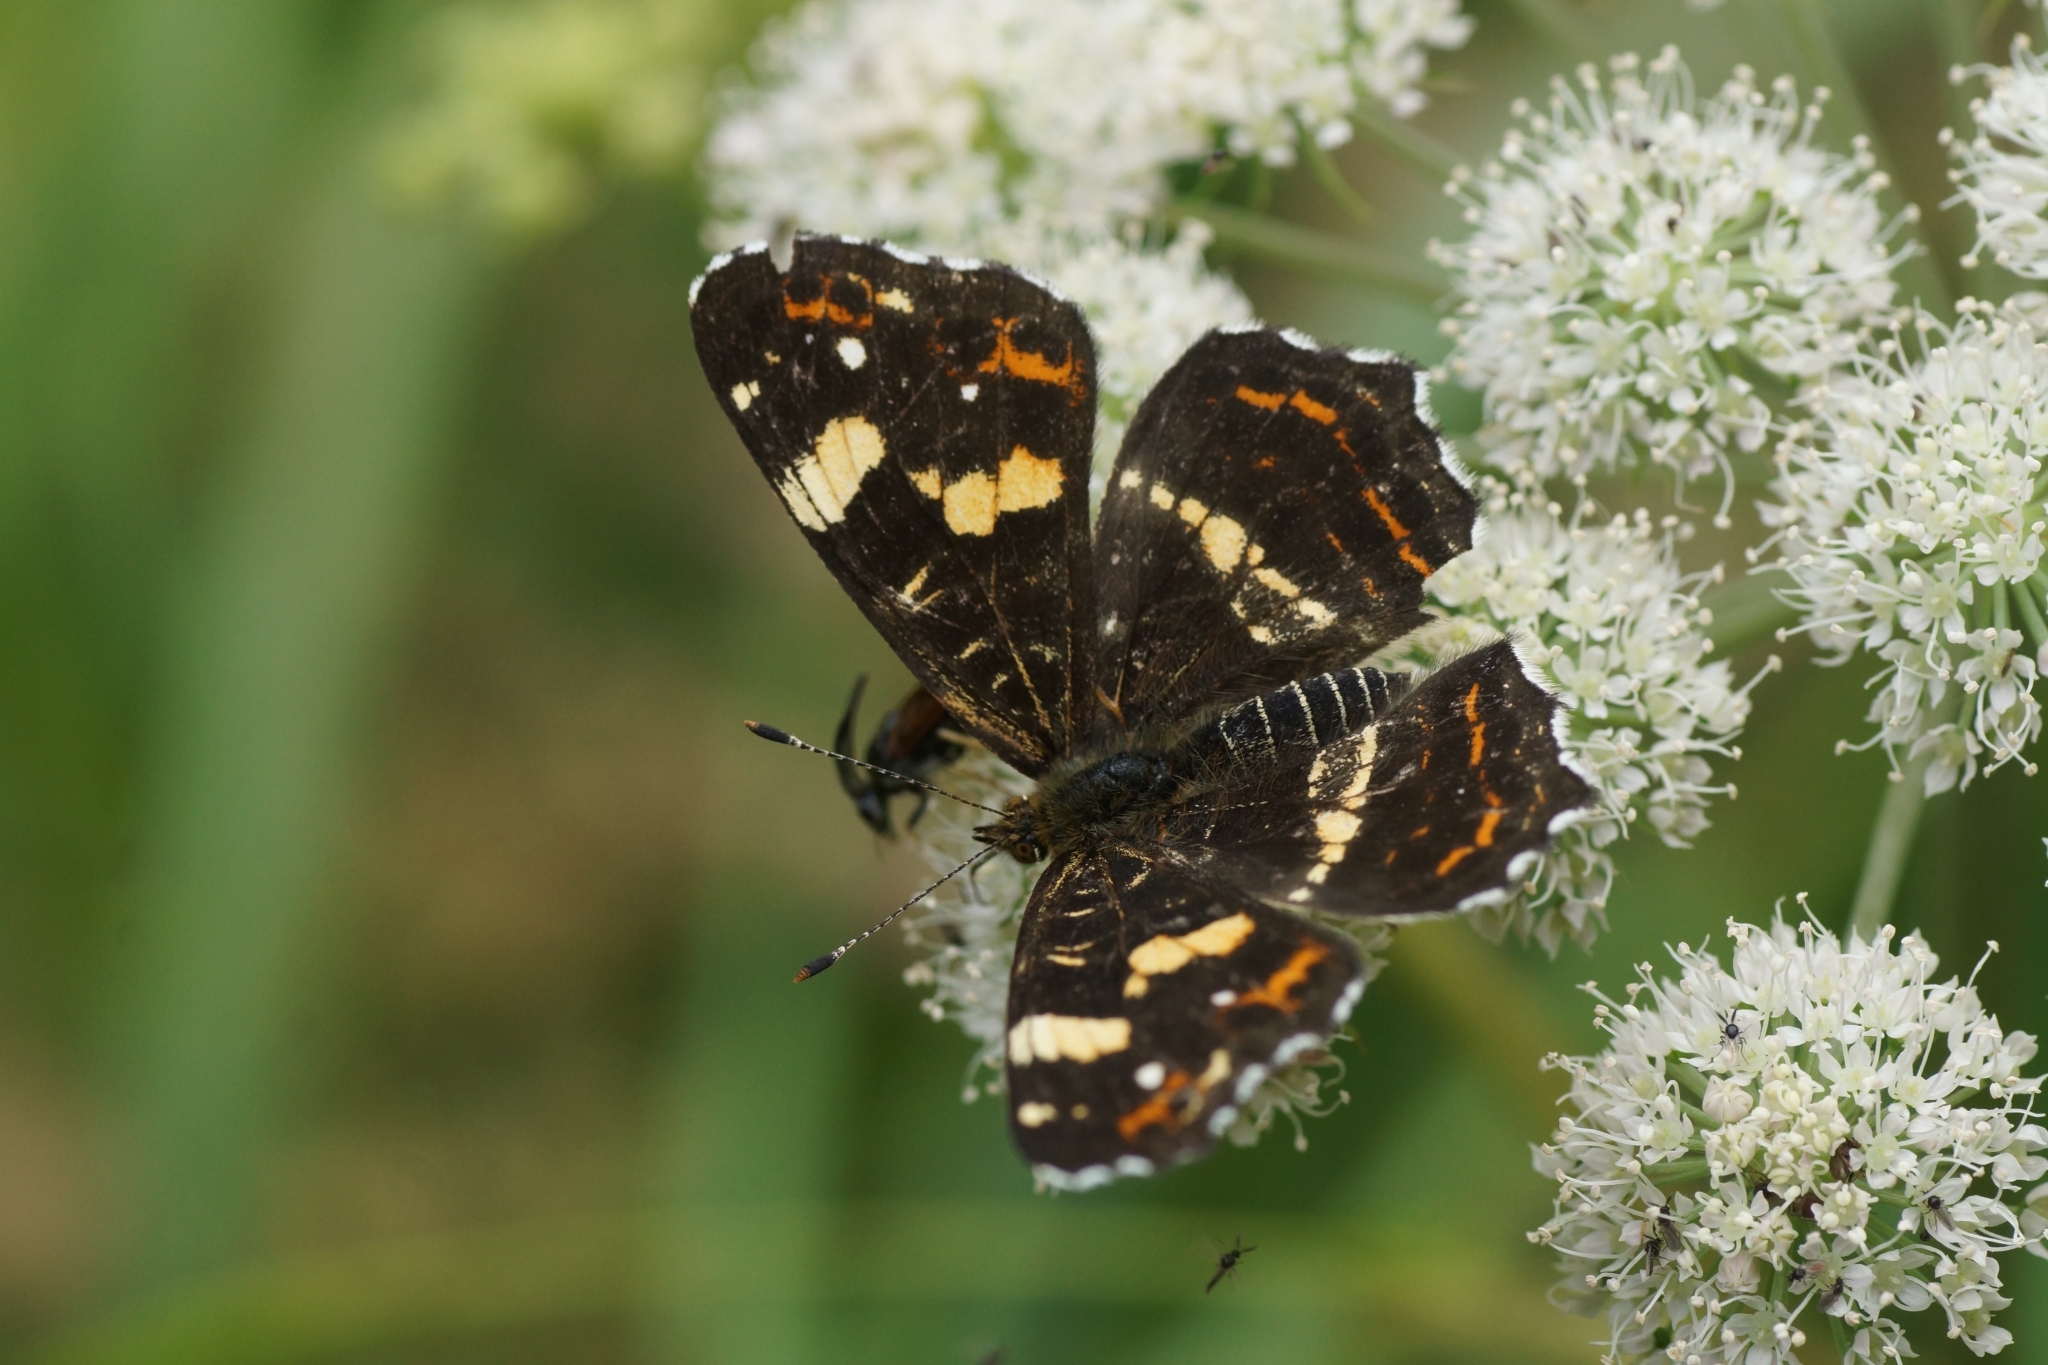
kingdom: Animalia
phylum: Arthropoda
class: Insecta
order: Lepidoptera
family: Nymphalidae
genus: Araschnia
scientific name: Araschnia levana
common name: Map butterfly
